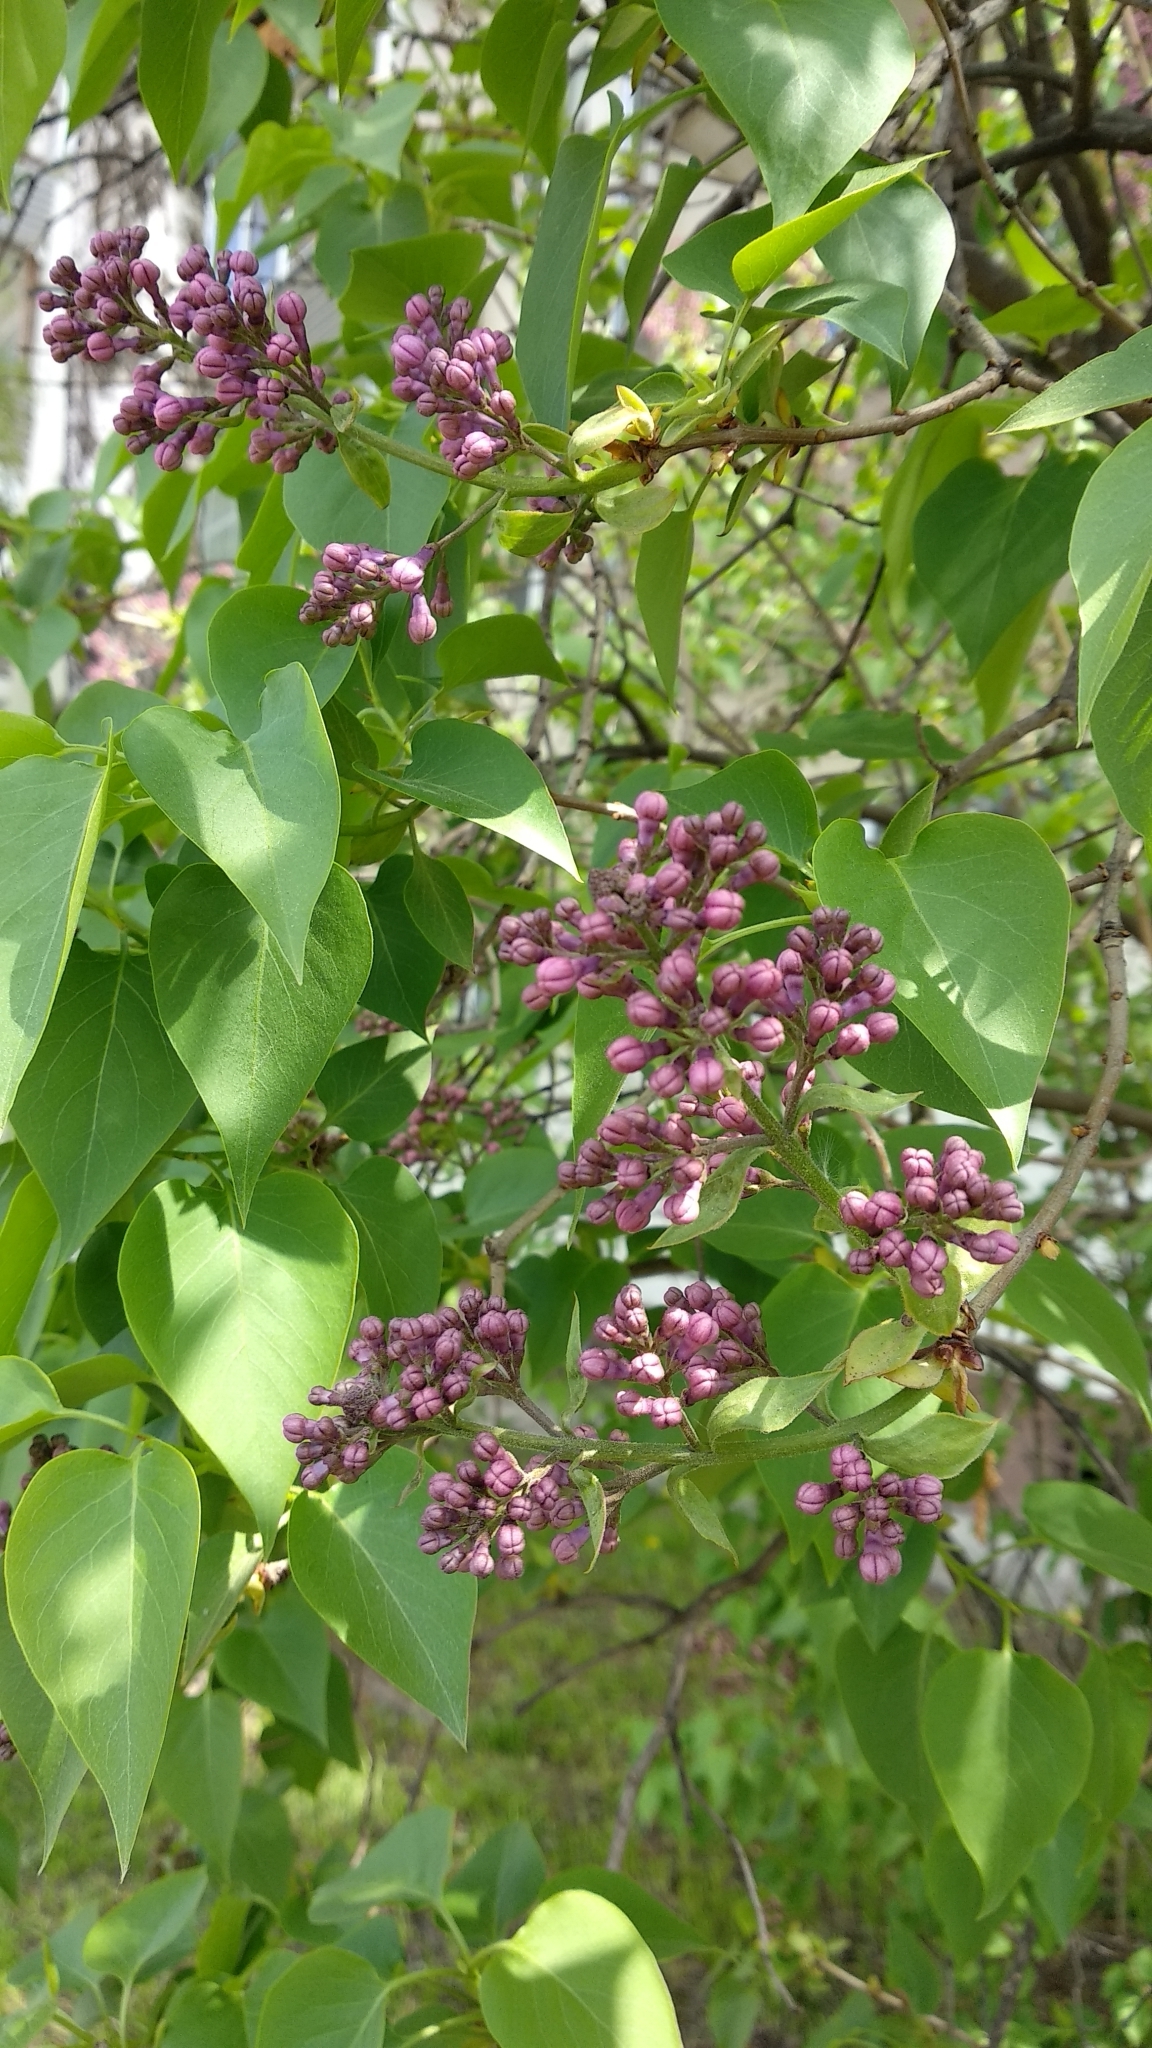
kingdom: Plantae
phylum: Tracheophyta
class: Magnoliopsida
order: Lamiales
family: Oleaceae
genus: Syringa
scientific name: Syringa vulgaris
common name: Common lilac
